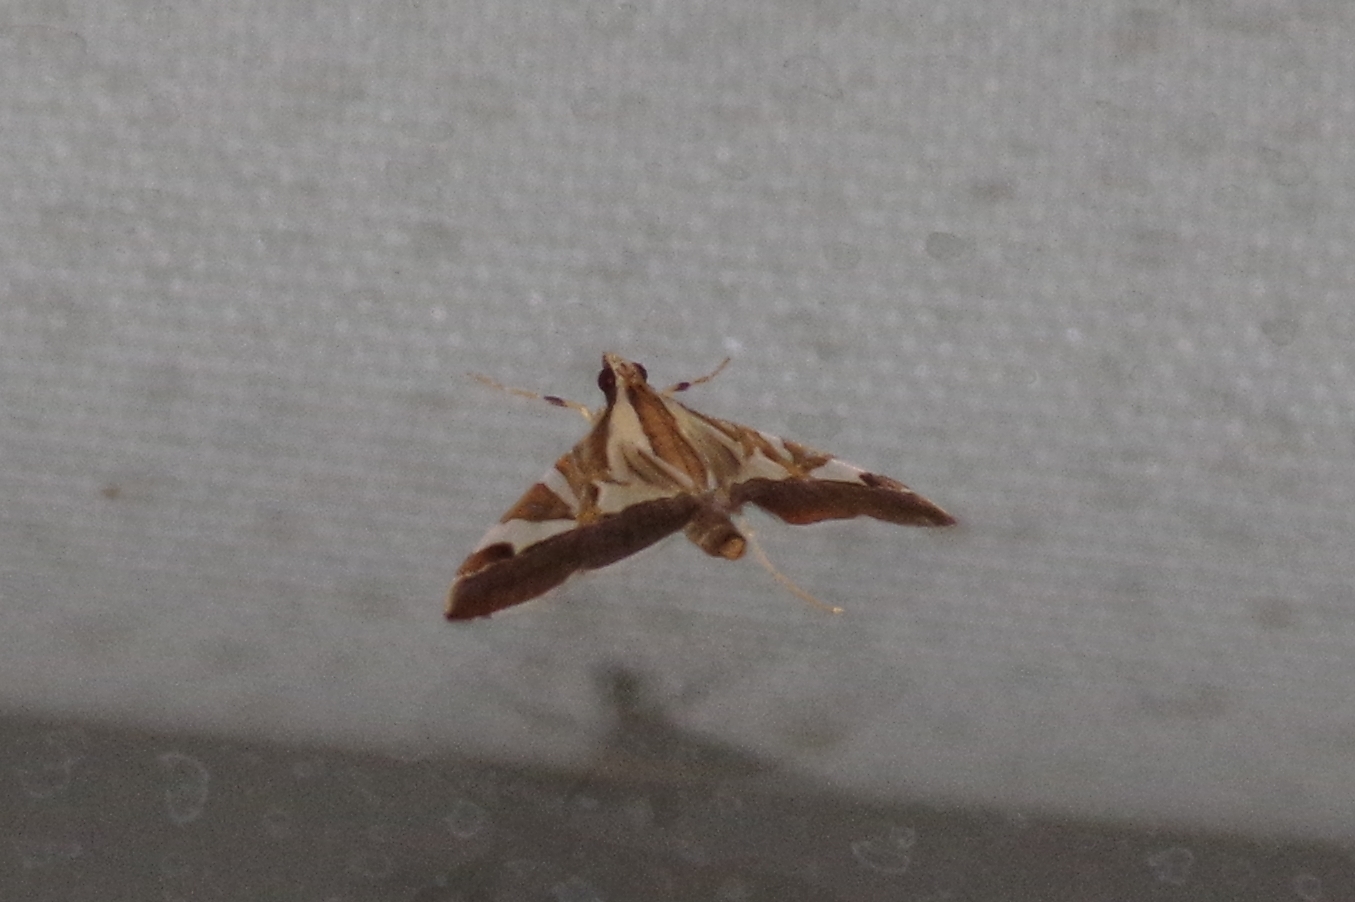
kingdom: Animalia
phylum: Arthropoda
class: Insecta
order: Lepidoptera
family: Crambidae
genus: Agrioglypta
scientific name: Agrioglypta itysalis
